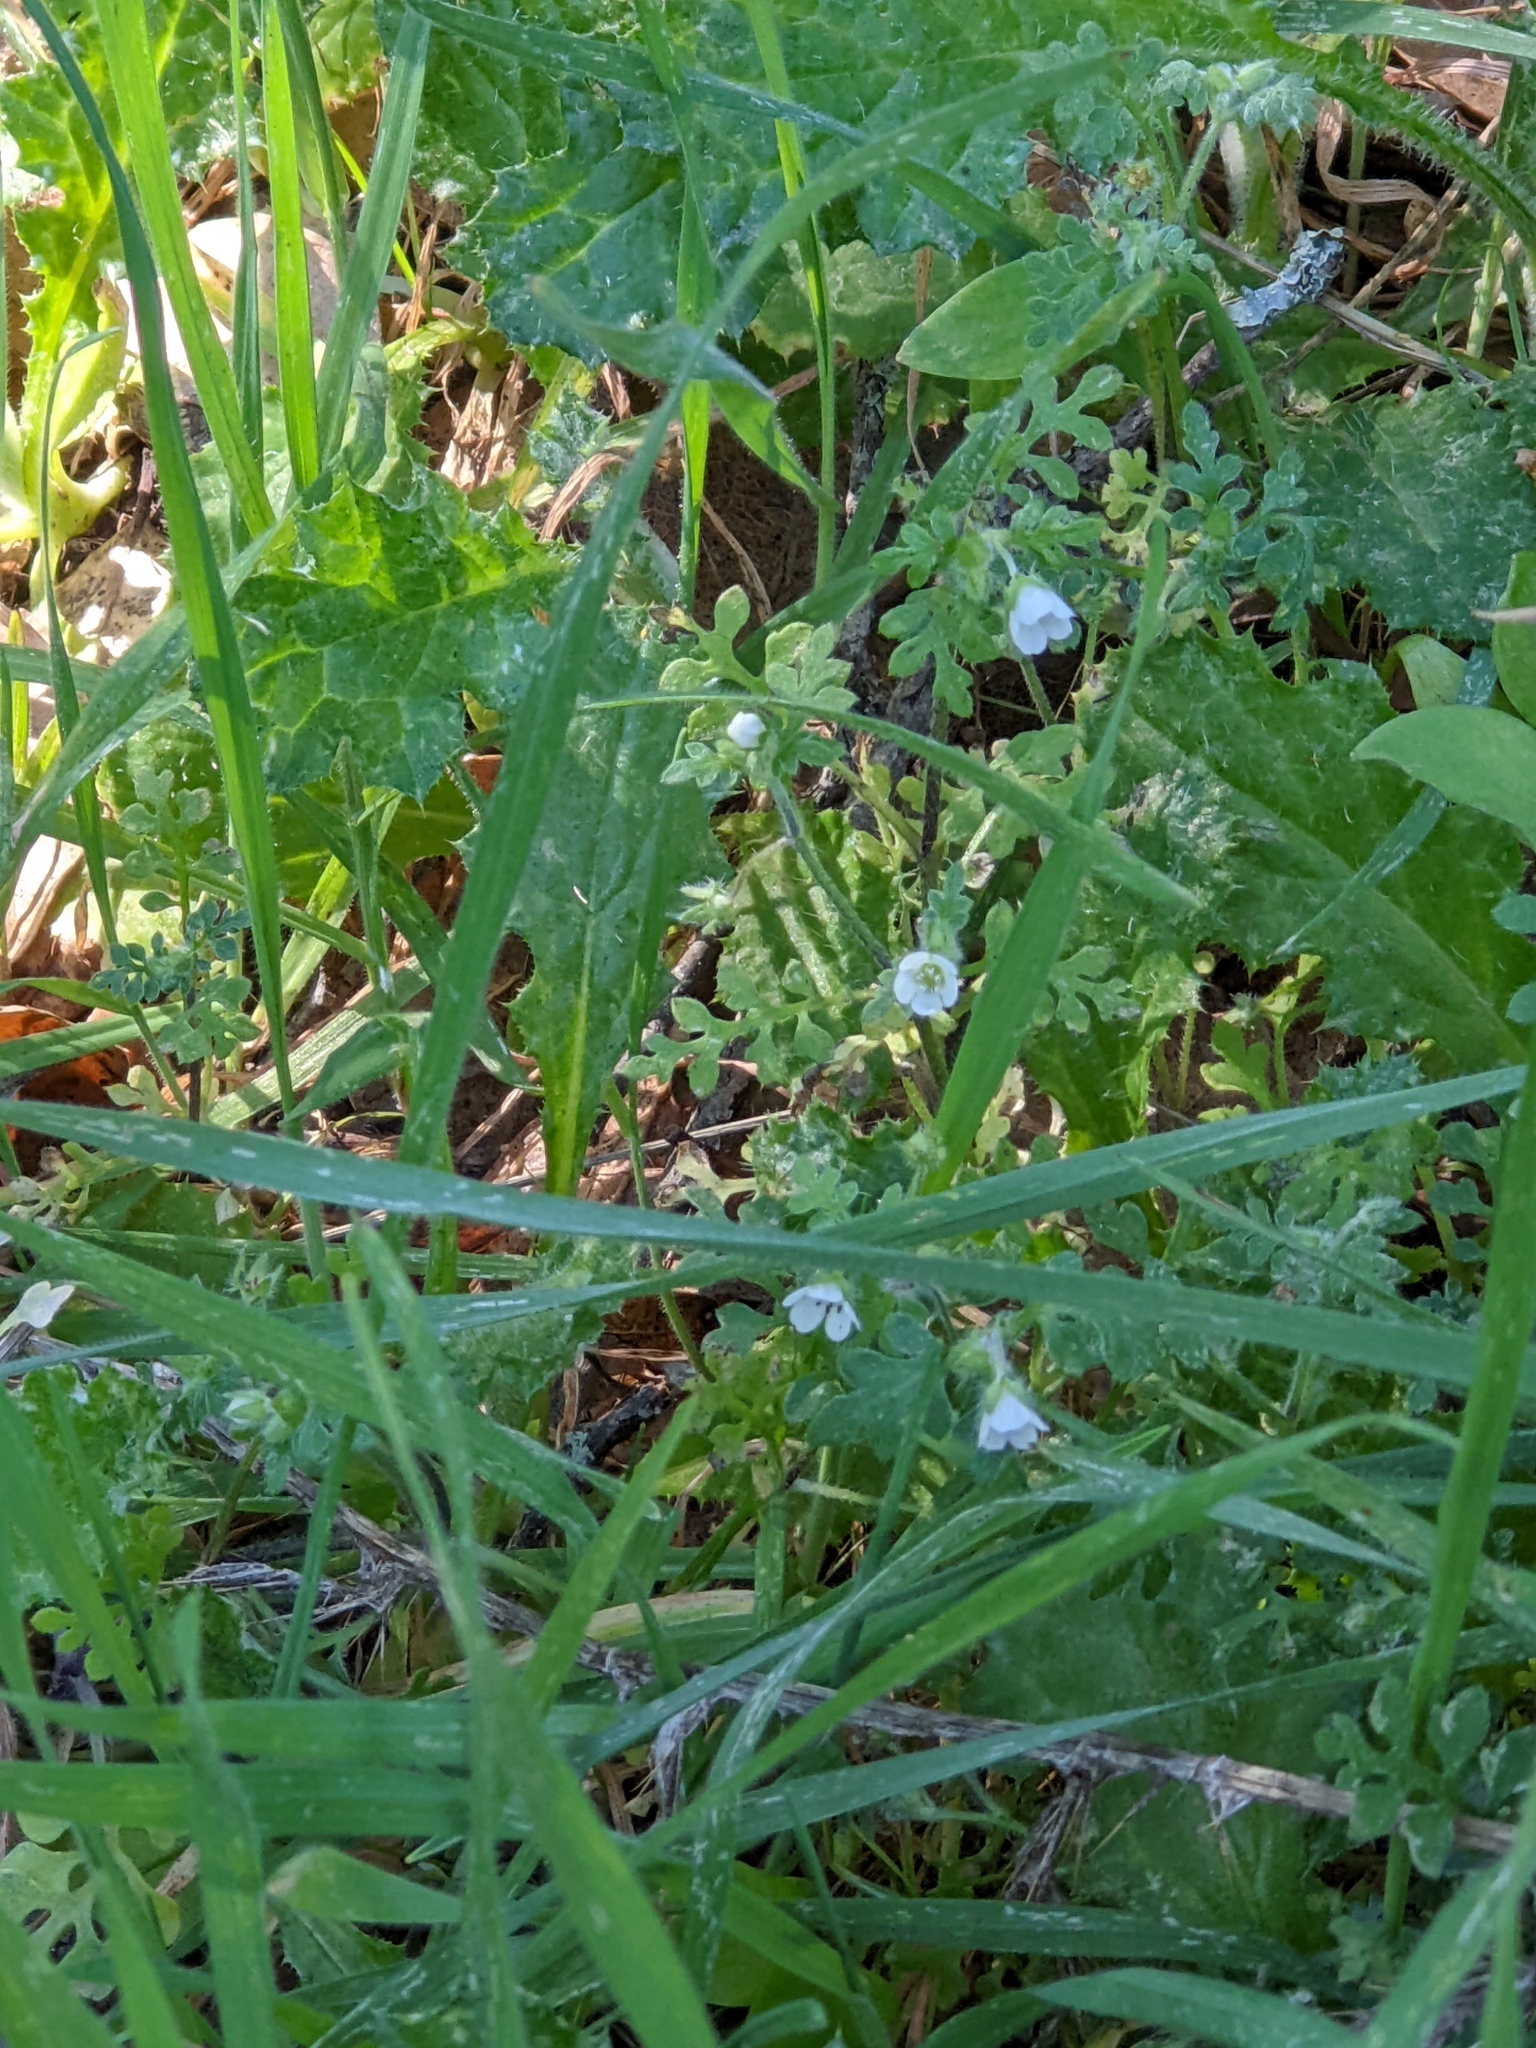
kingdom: Plantae
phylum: Tracheophyta
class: Magnoliopsida
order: Boraginales
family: Hydrophyllaceae
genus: Nemophila
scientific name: Nemophila heterophylla
